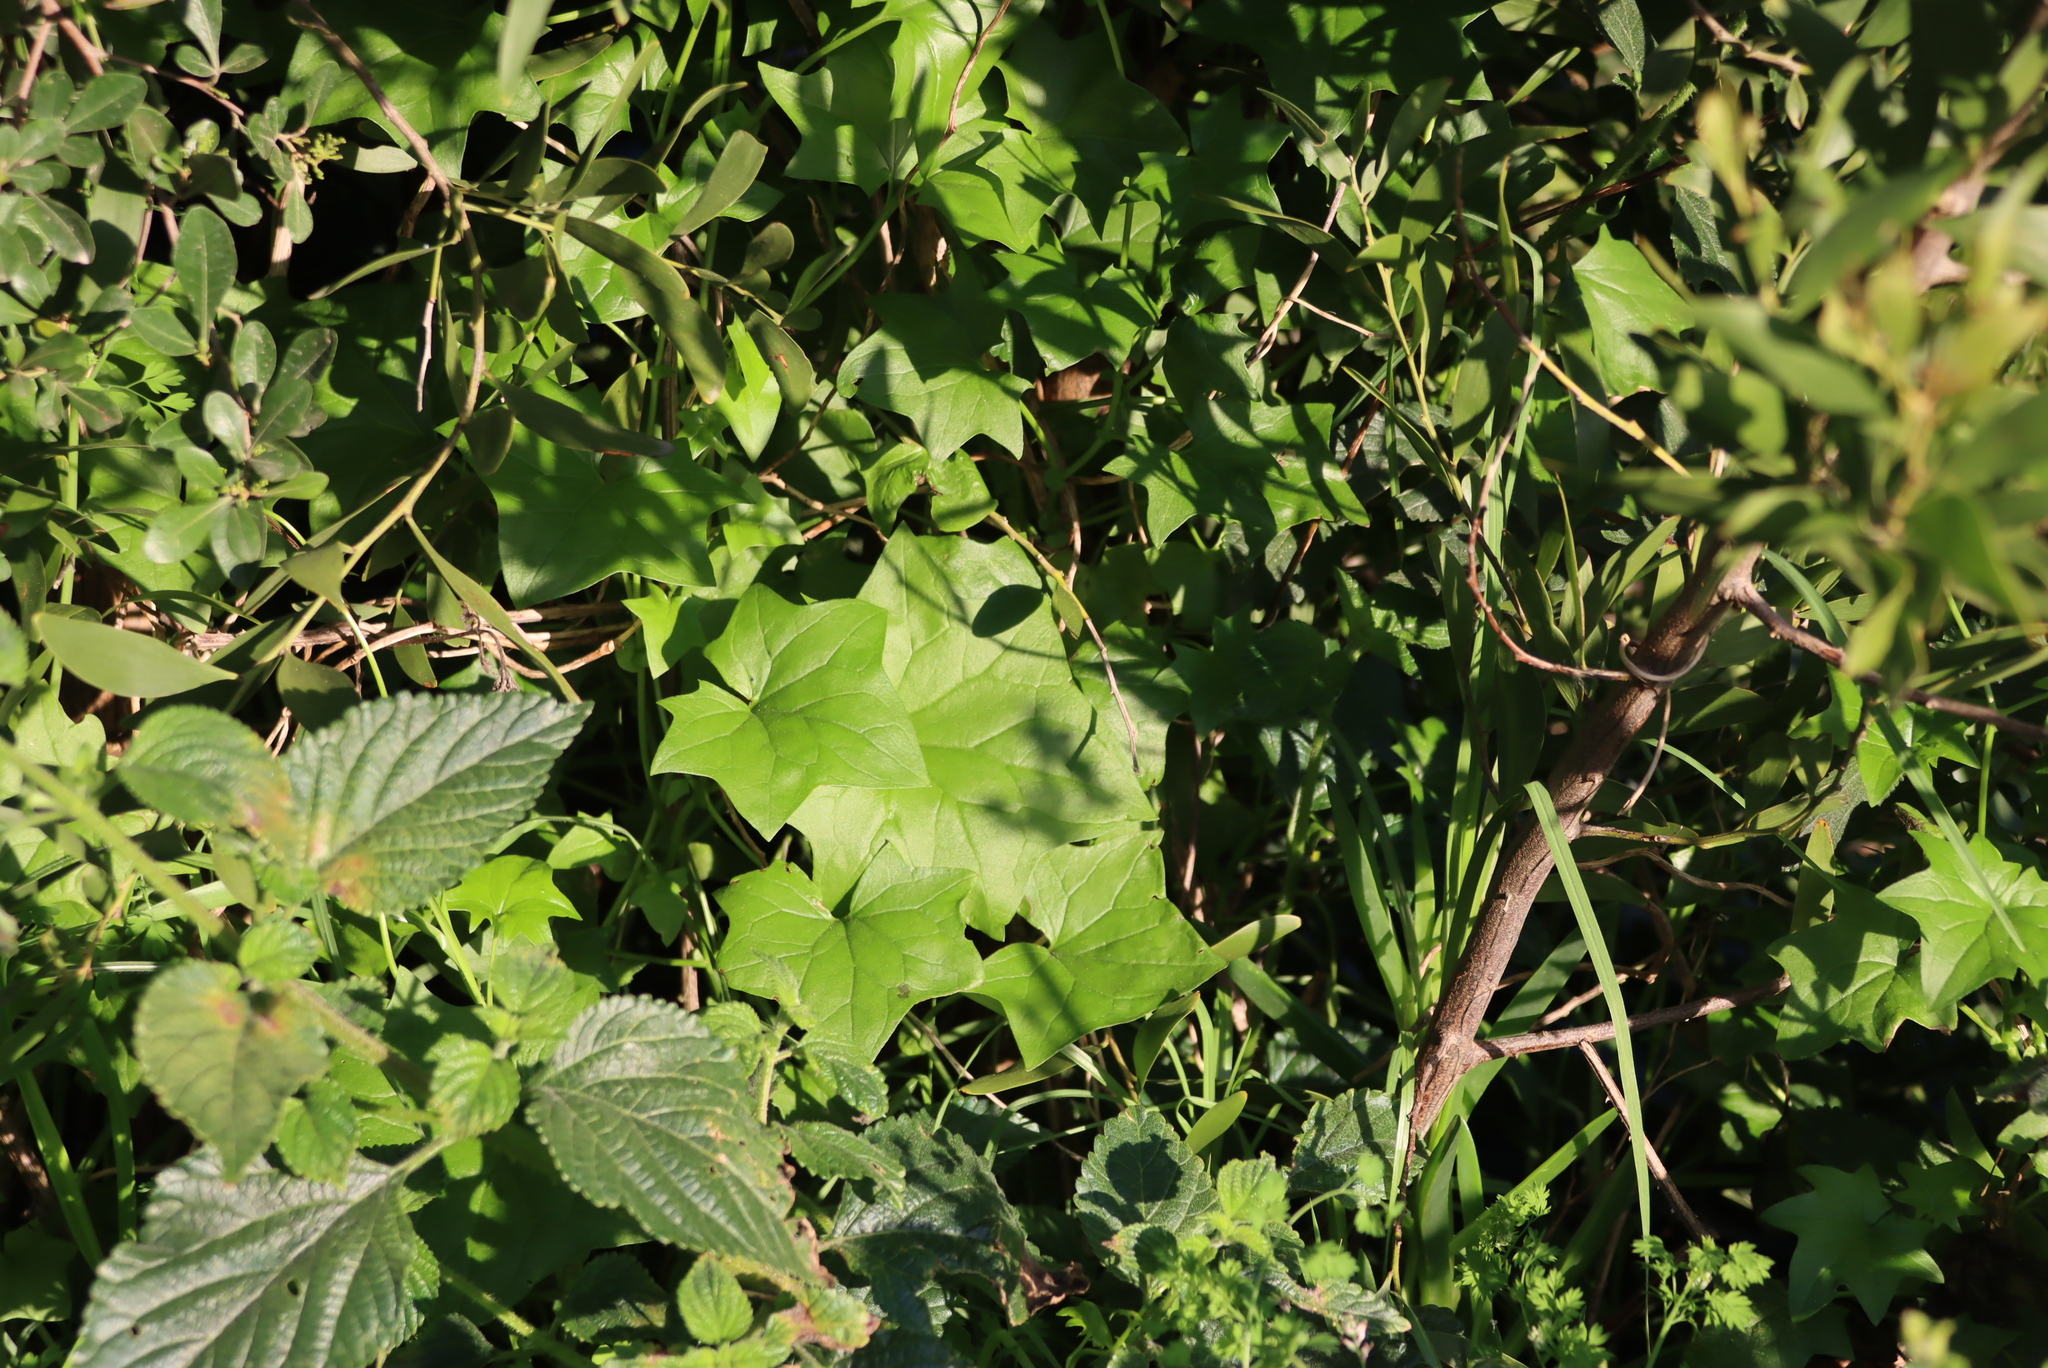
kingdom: Plantae
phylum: Tracheophyta
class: Magnoliopsida
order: Asterales
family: Asteraceae
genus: Senecio
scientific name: Senecio deltoideus
